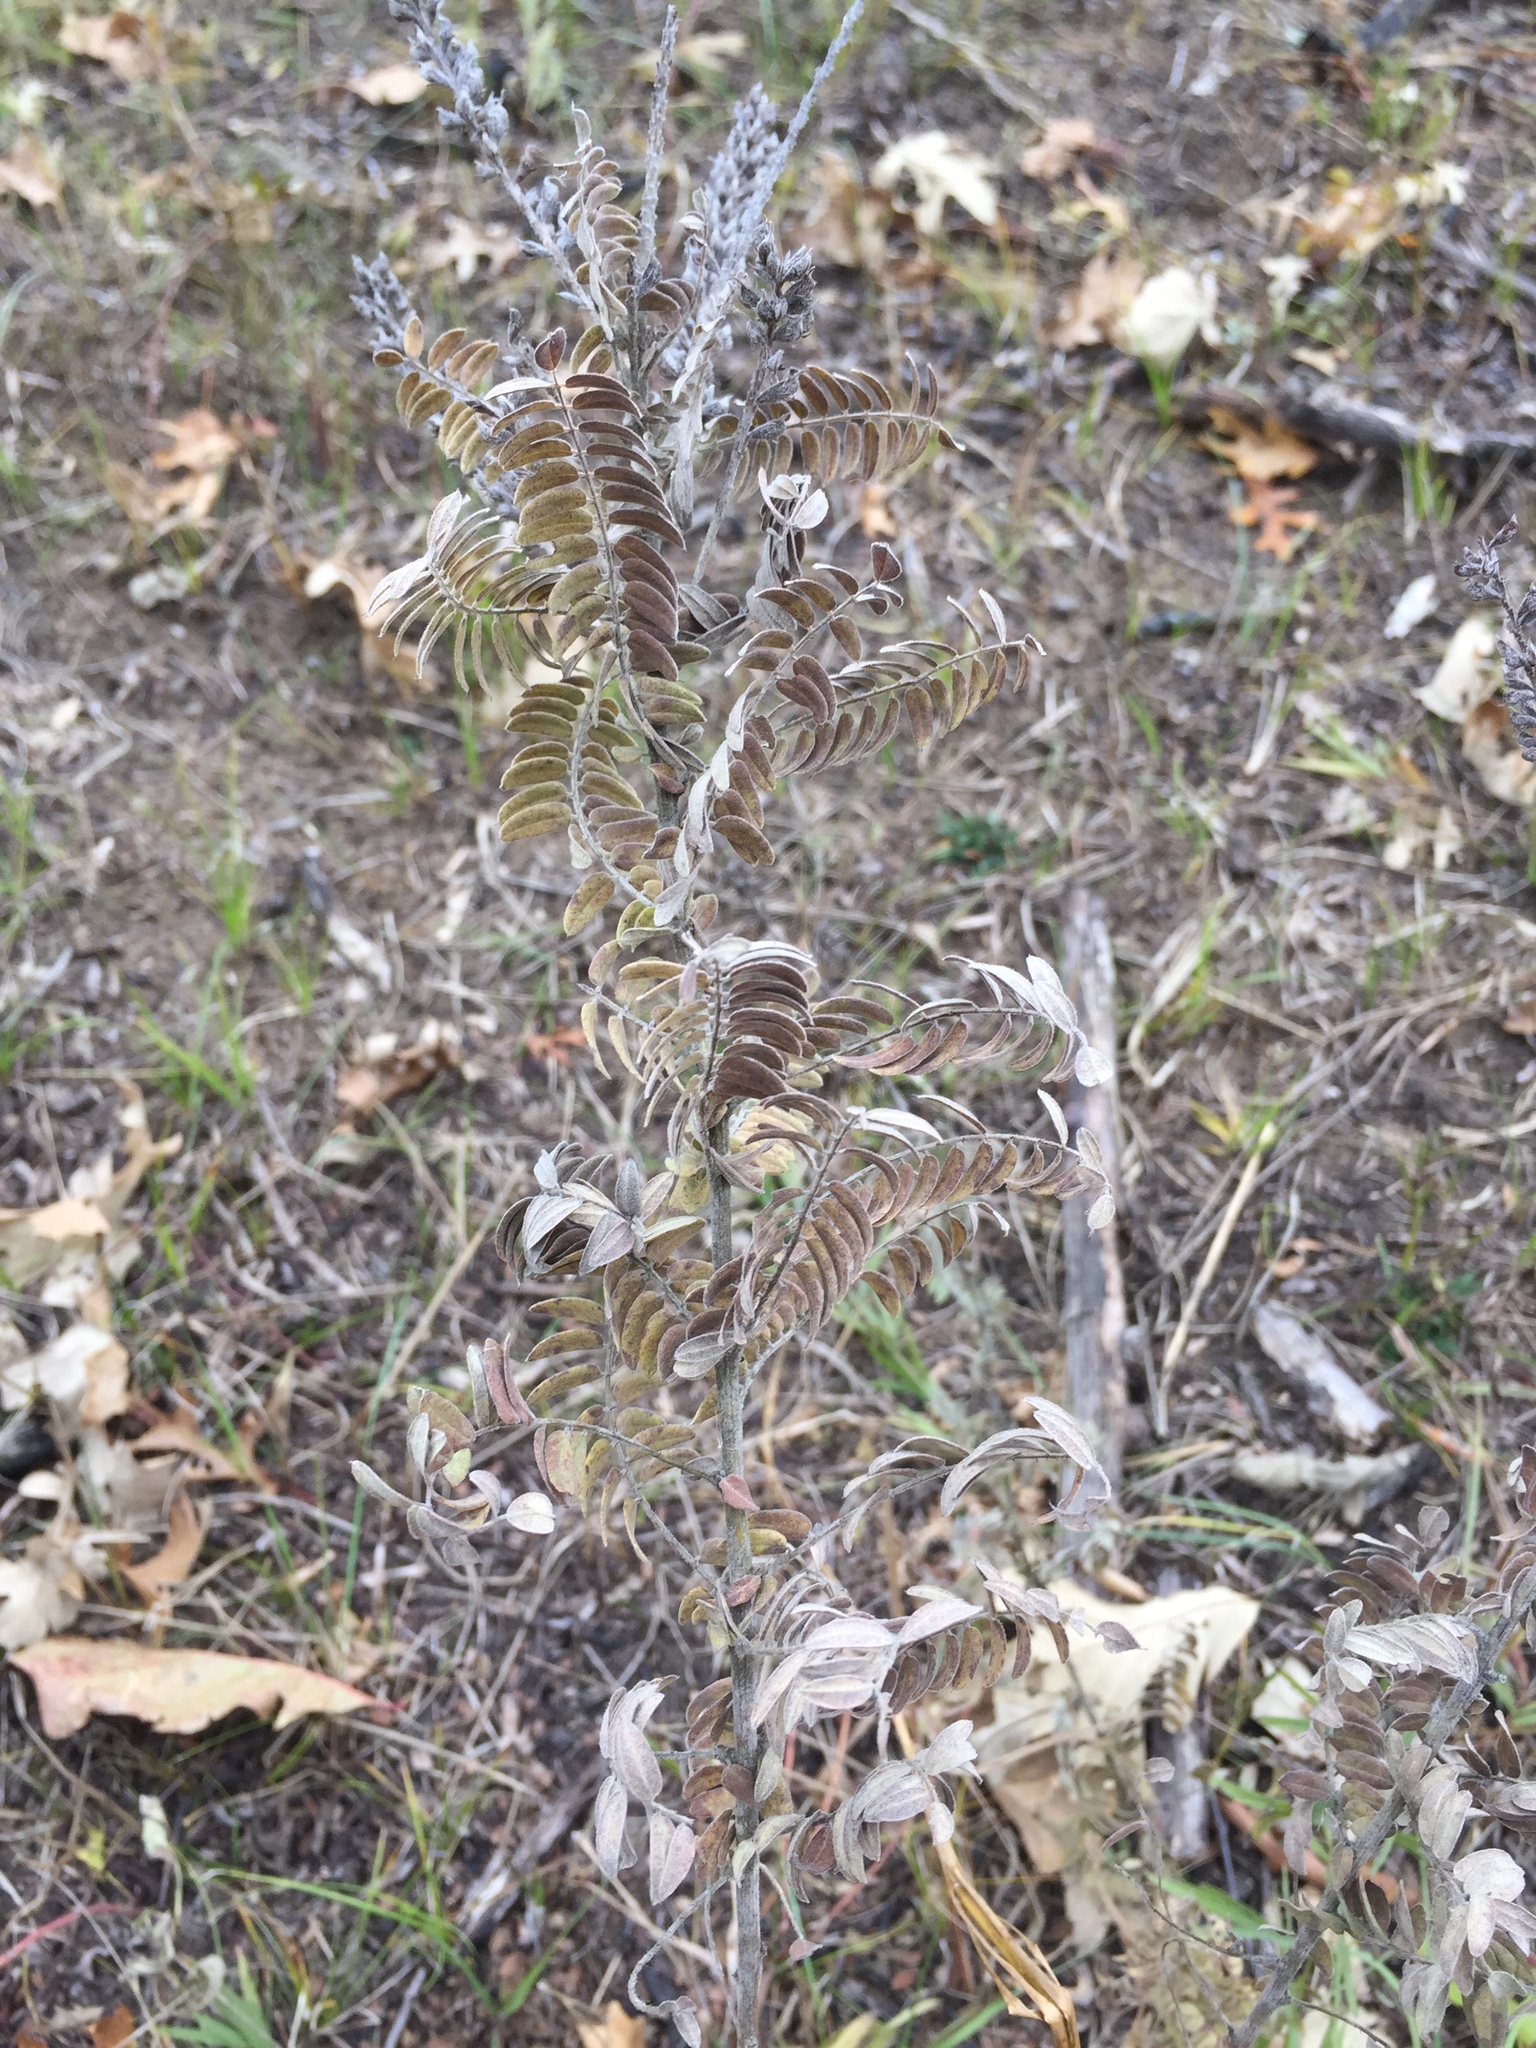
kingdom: Plantae
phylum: Tracheophyta
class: Magnoliopsida
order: Fabales
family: Fabaceae
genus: Amorpha
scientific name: Amorpha canescens
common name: Leadplant
